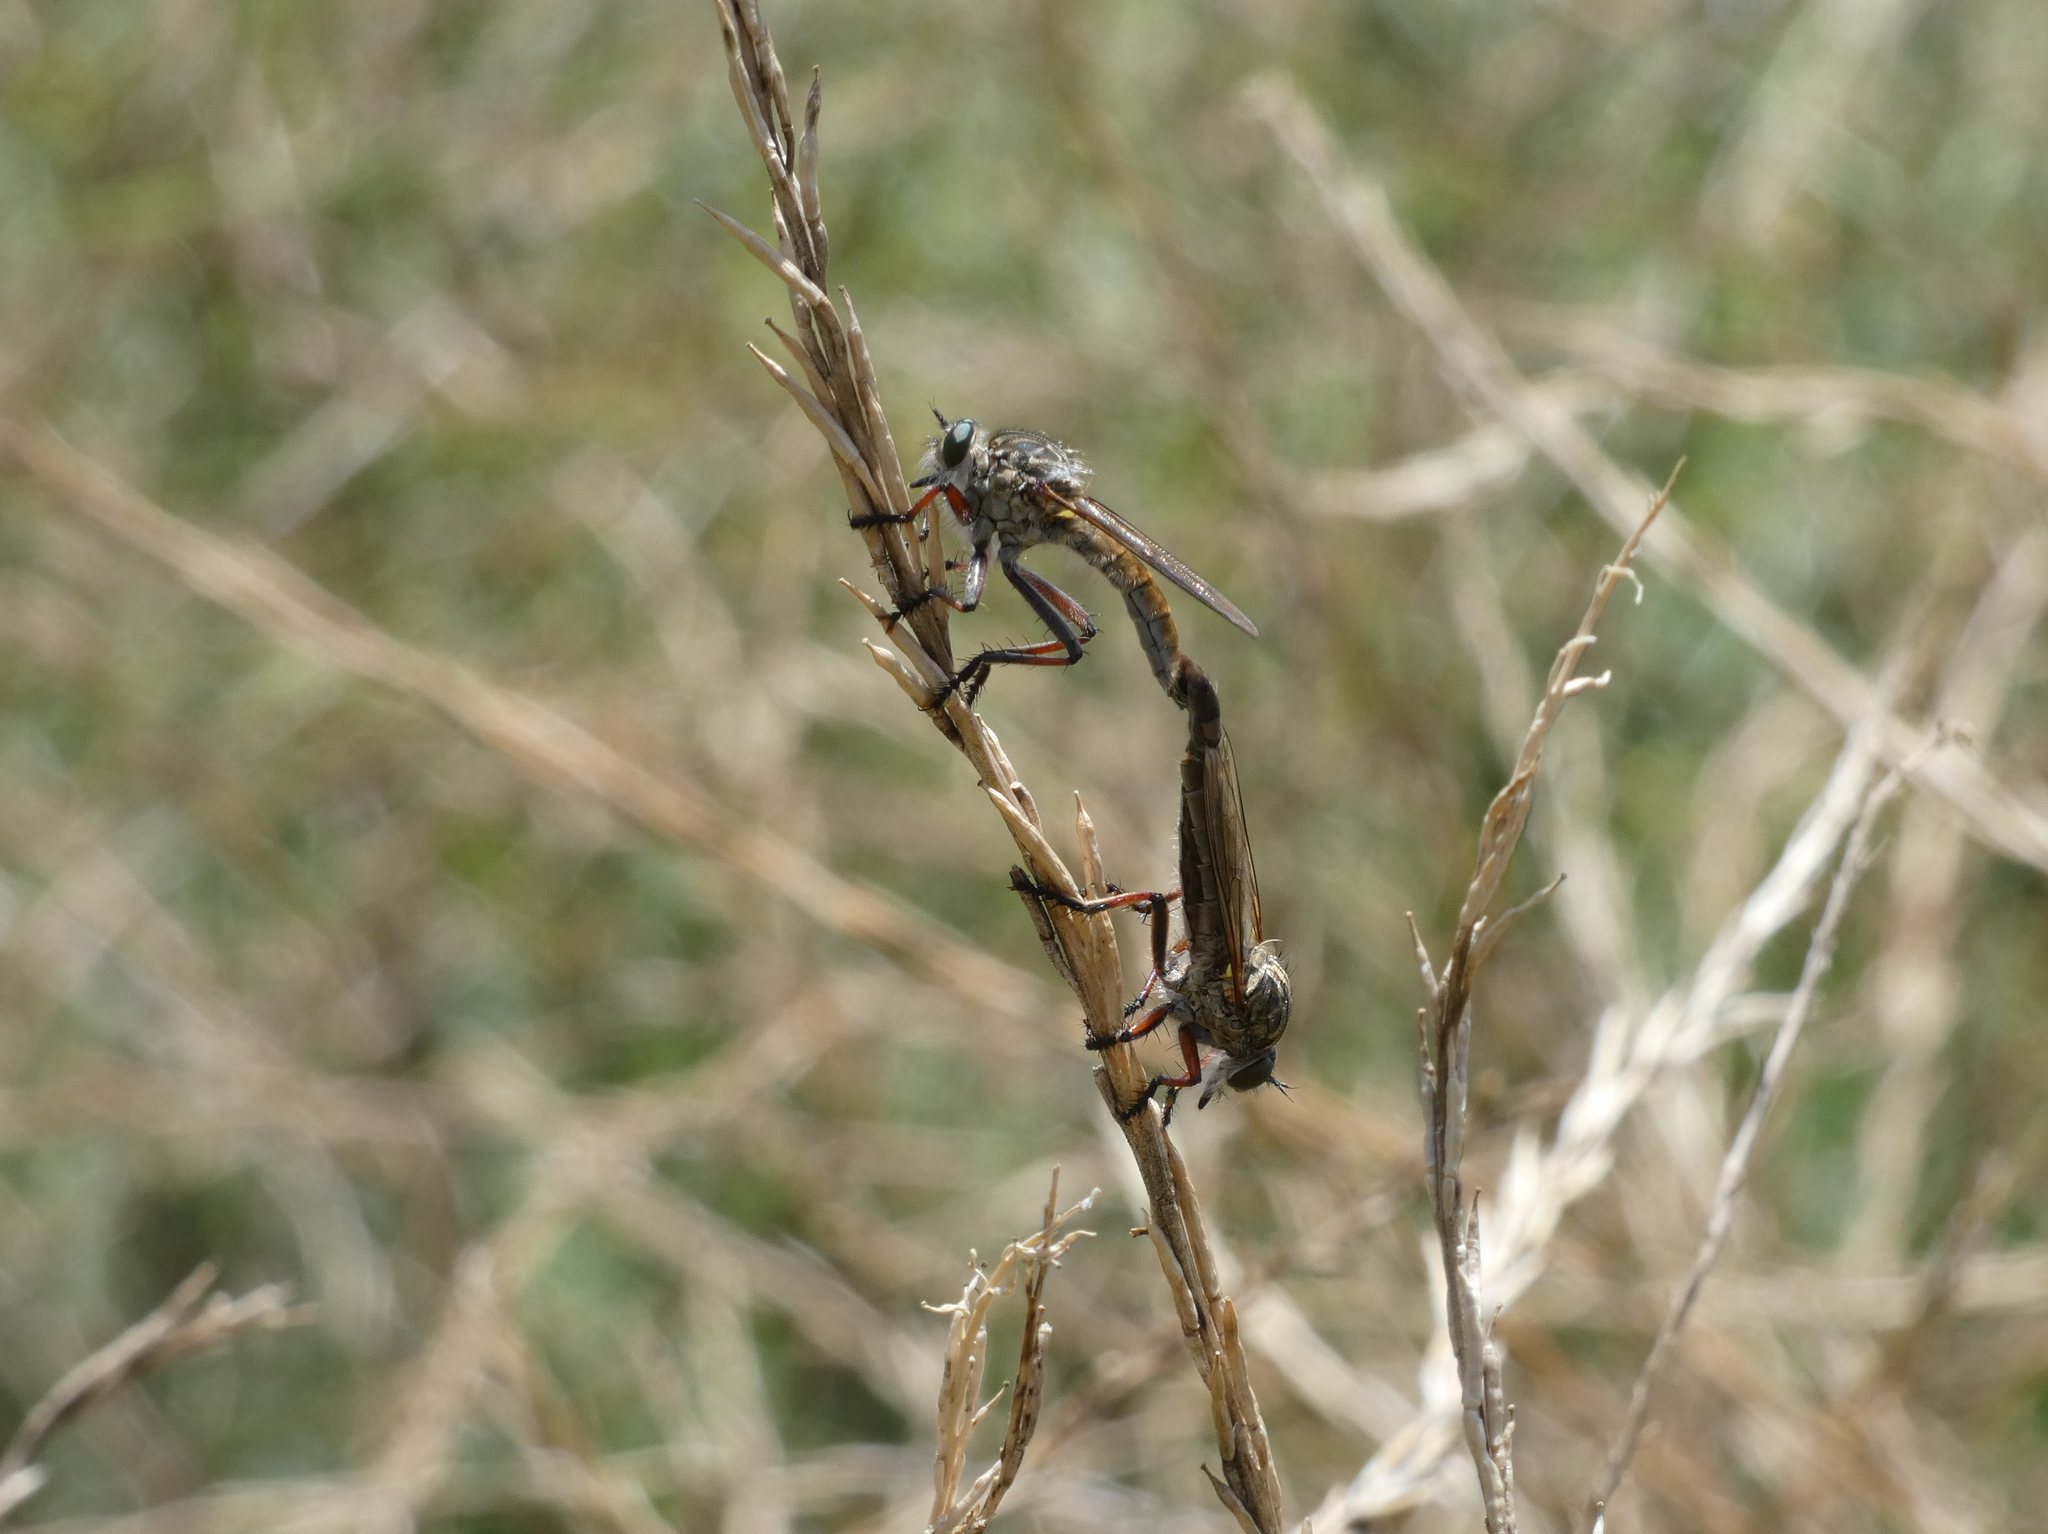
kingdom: Animalia
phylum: Arthropoda
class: Insecta
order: Diptera
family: Asilidae
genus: Dolopus
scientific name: Dolopus rubrithorax
